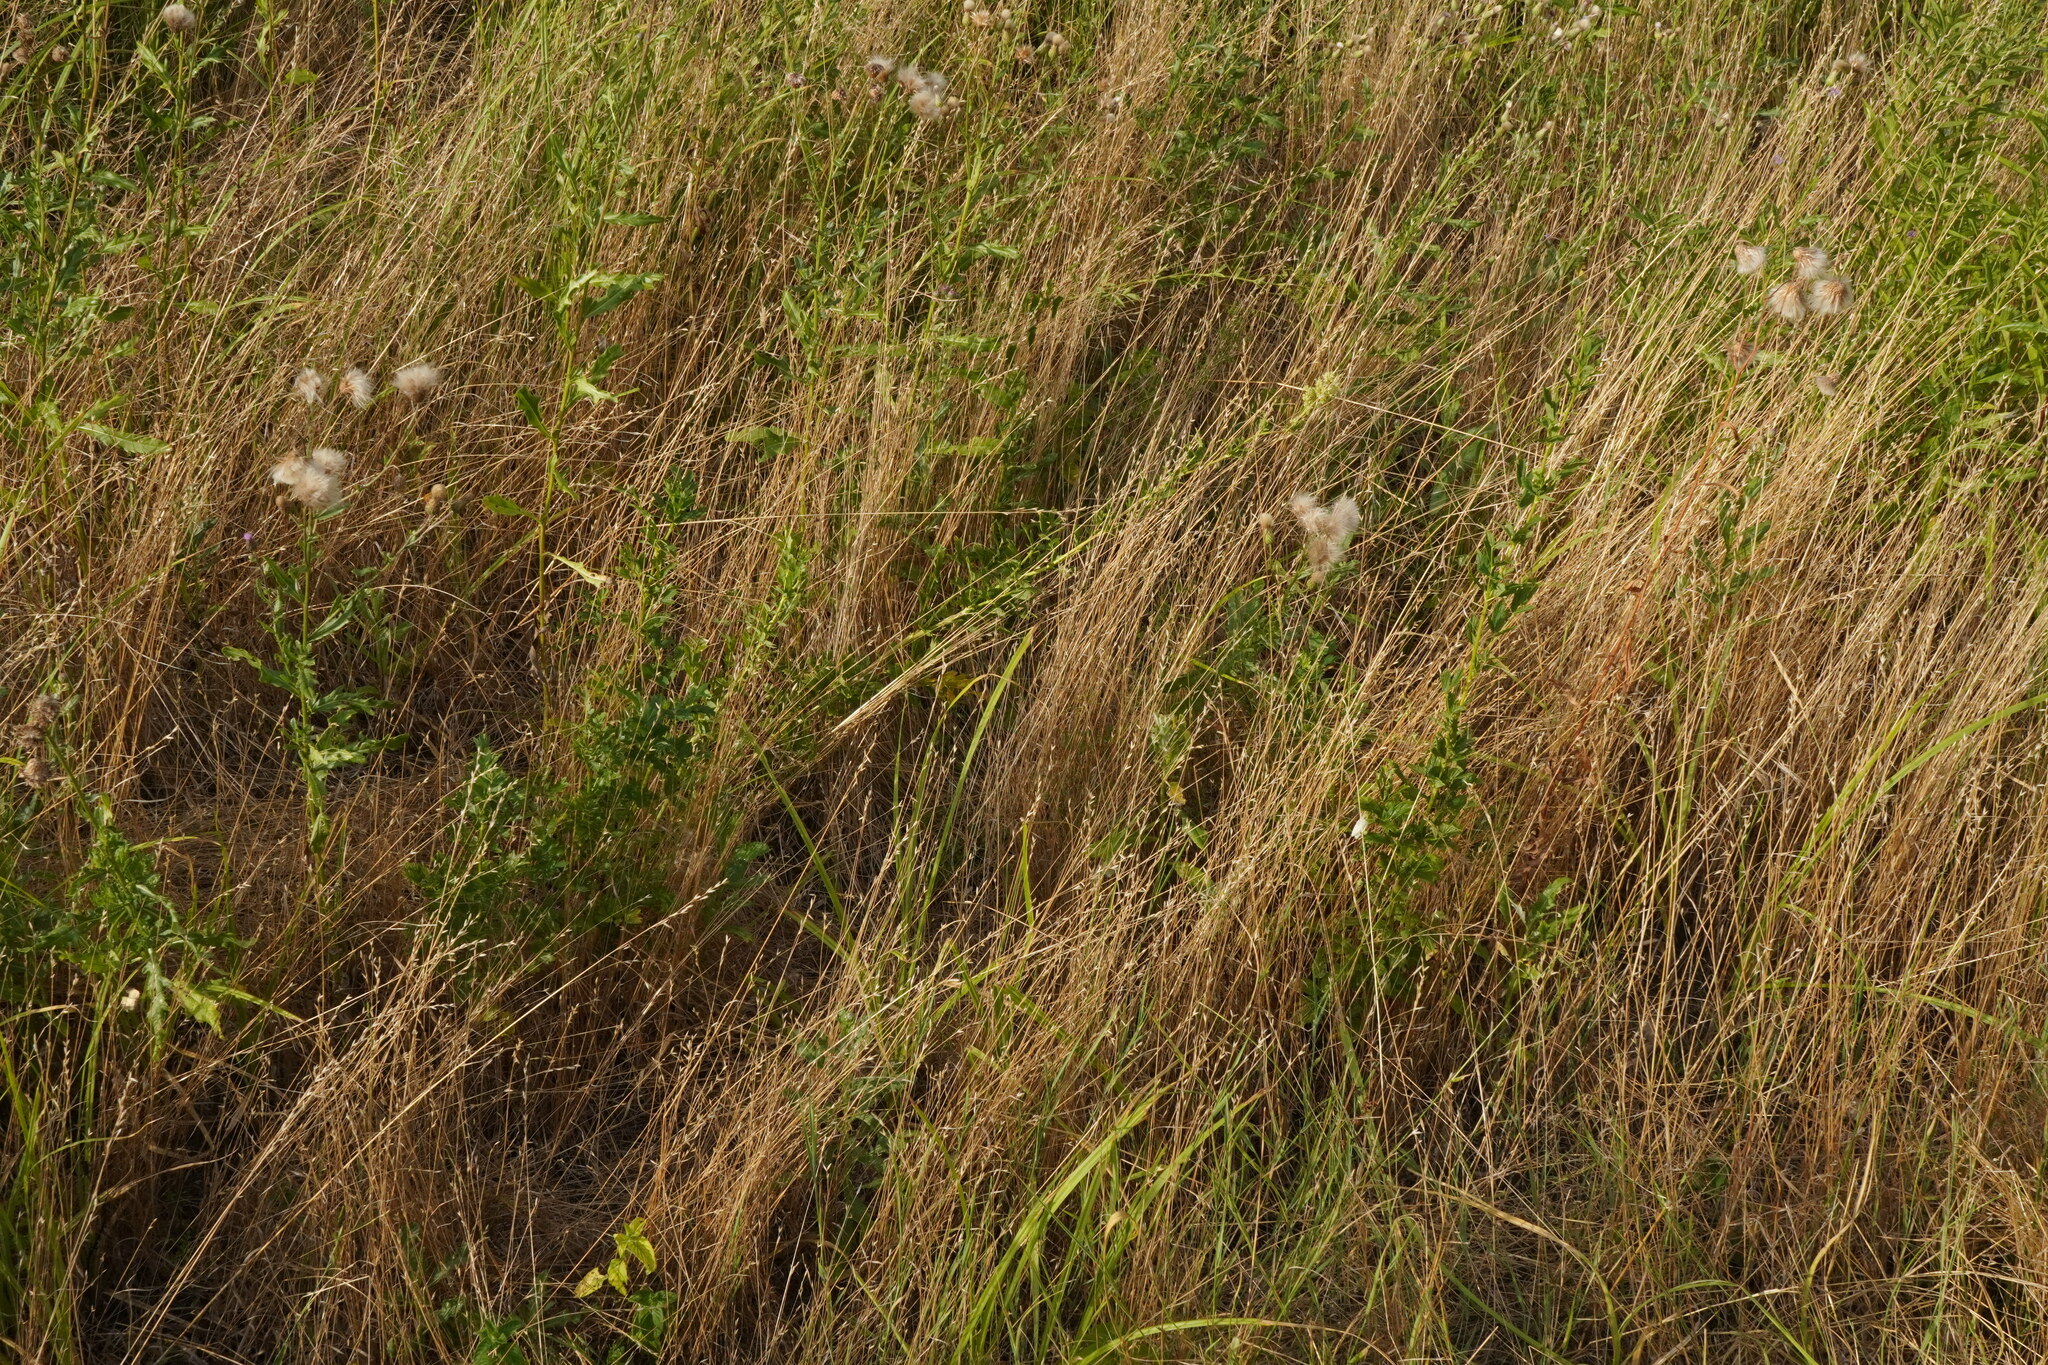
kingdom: Plantae
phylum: Tracheophyta
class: Magnoliopsida
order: Ranunculales
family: Ranunculaceae
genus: Thalictrum
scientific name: Thalictrum flavum
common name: Common meadow-rue
